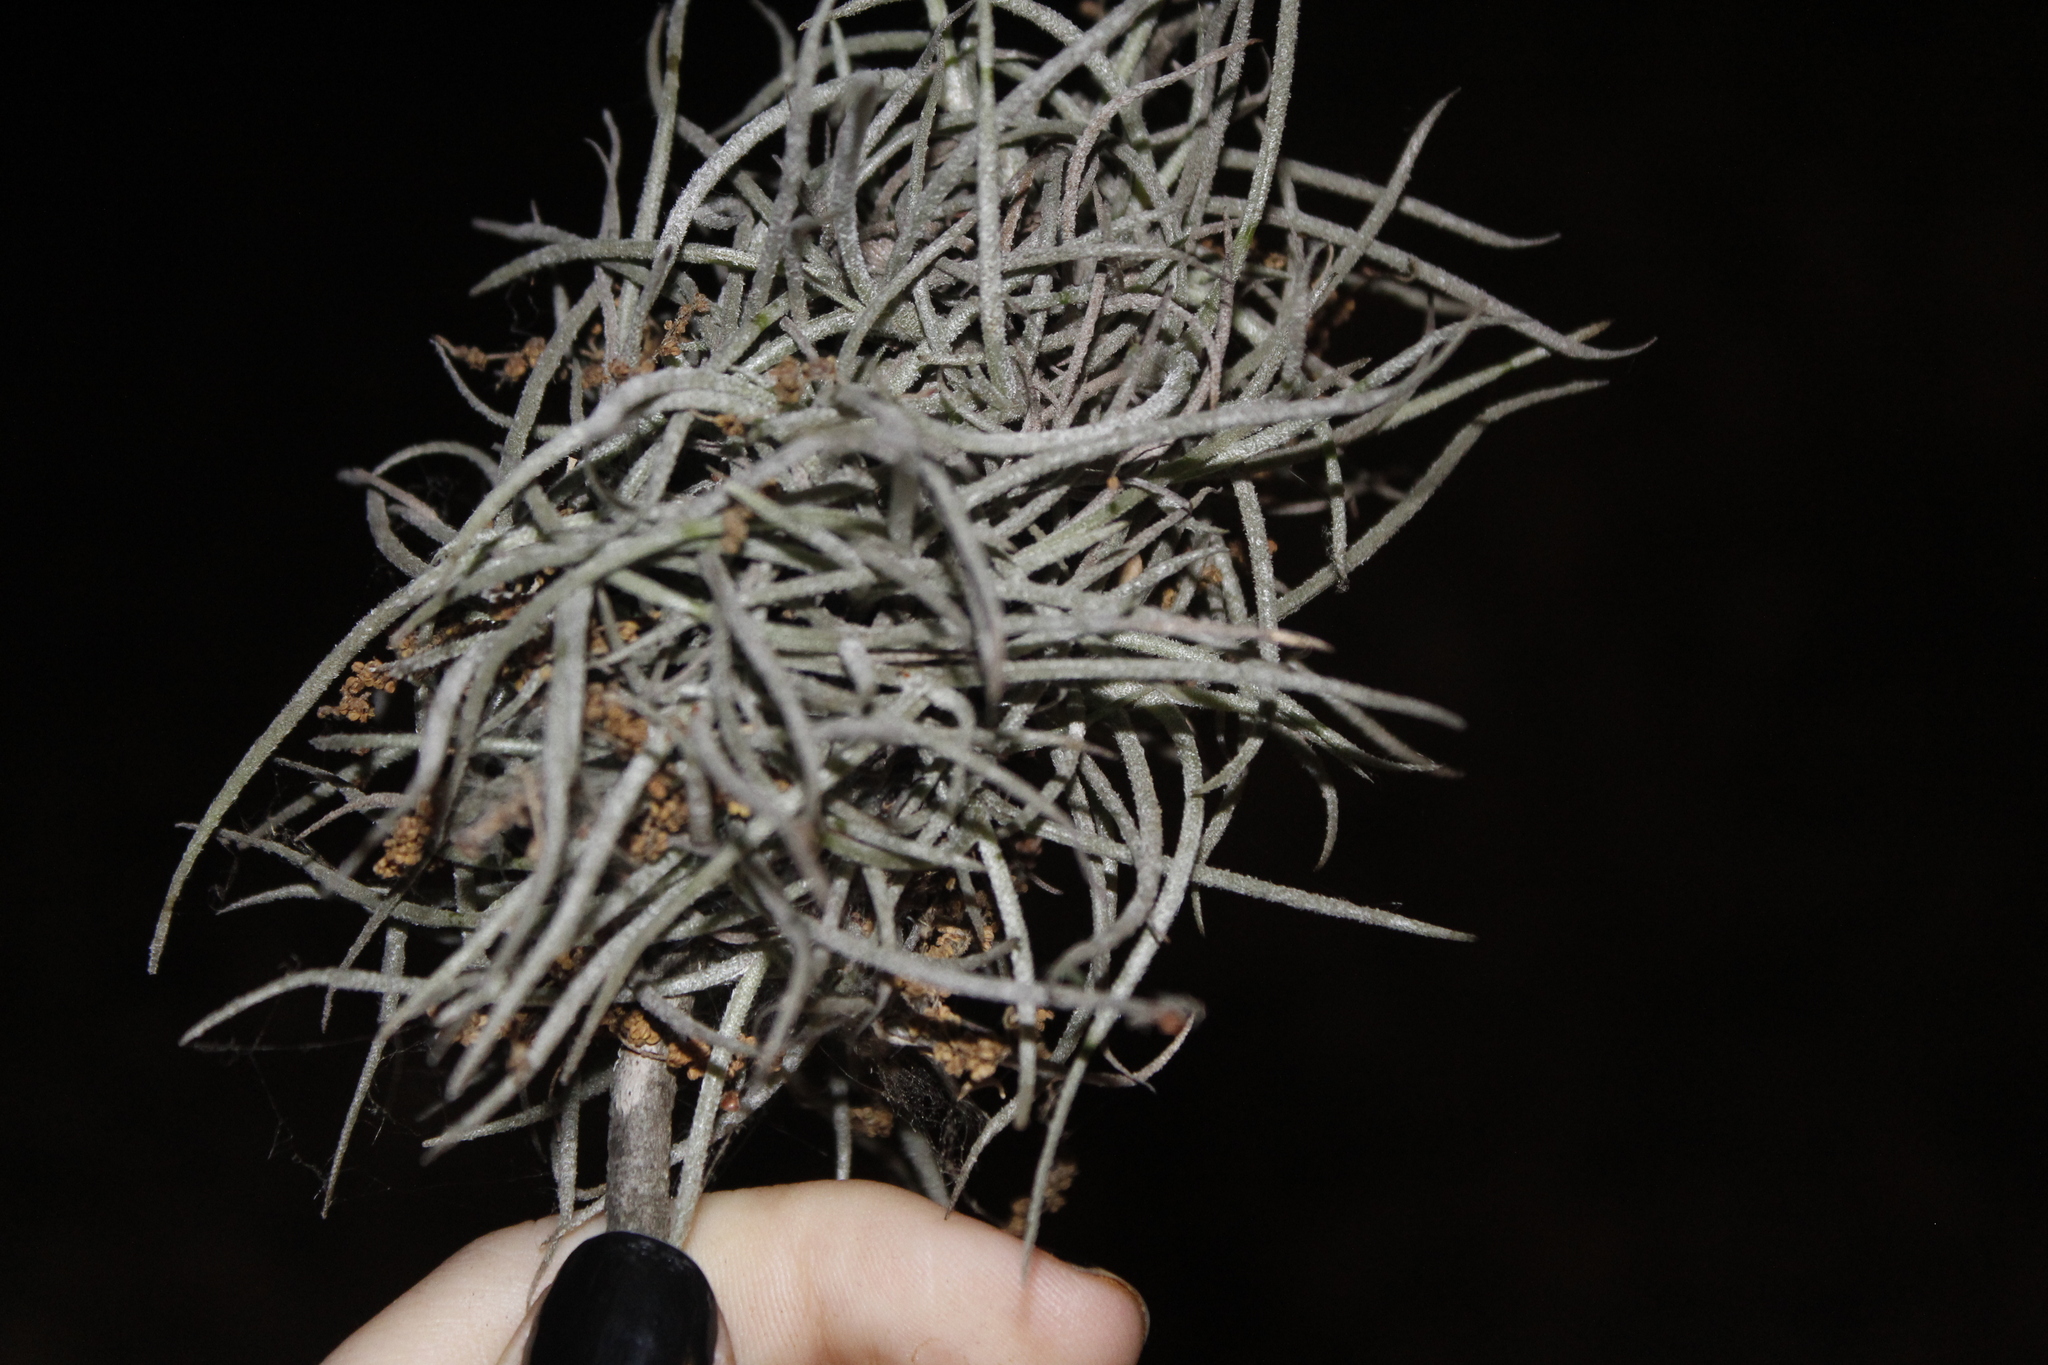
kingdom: Plantae
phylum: Tracheophyta
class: Liliopsida
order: Poales
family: Bromeliaceae
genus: Tillandsia
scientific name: Tillandsia recurvata
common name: Small ballmoss
